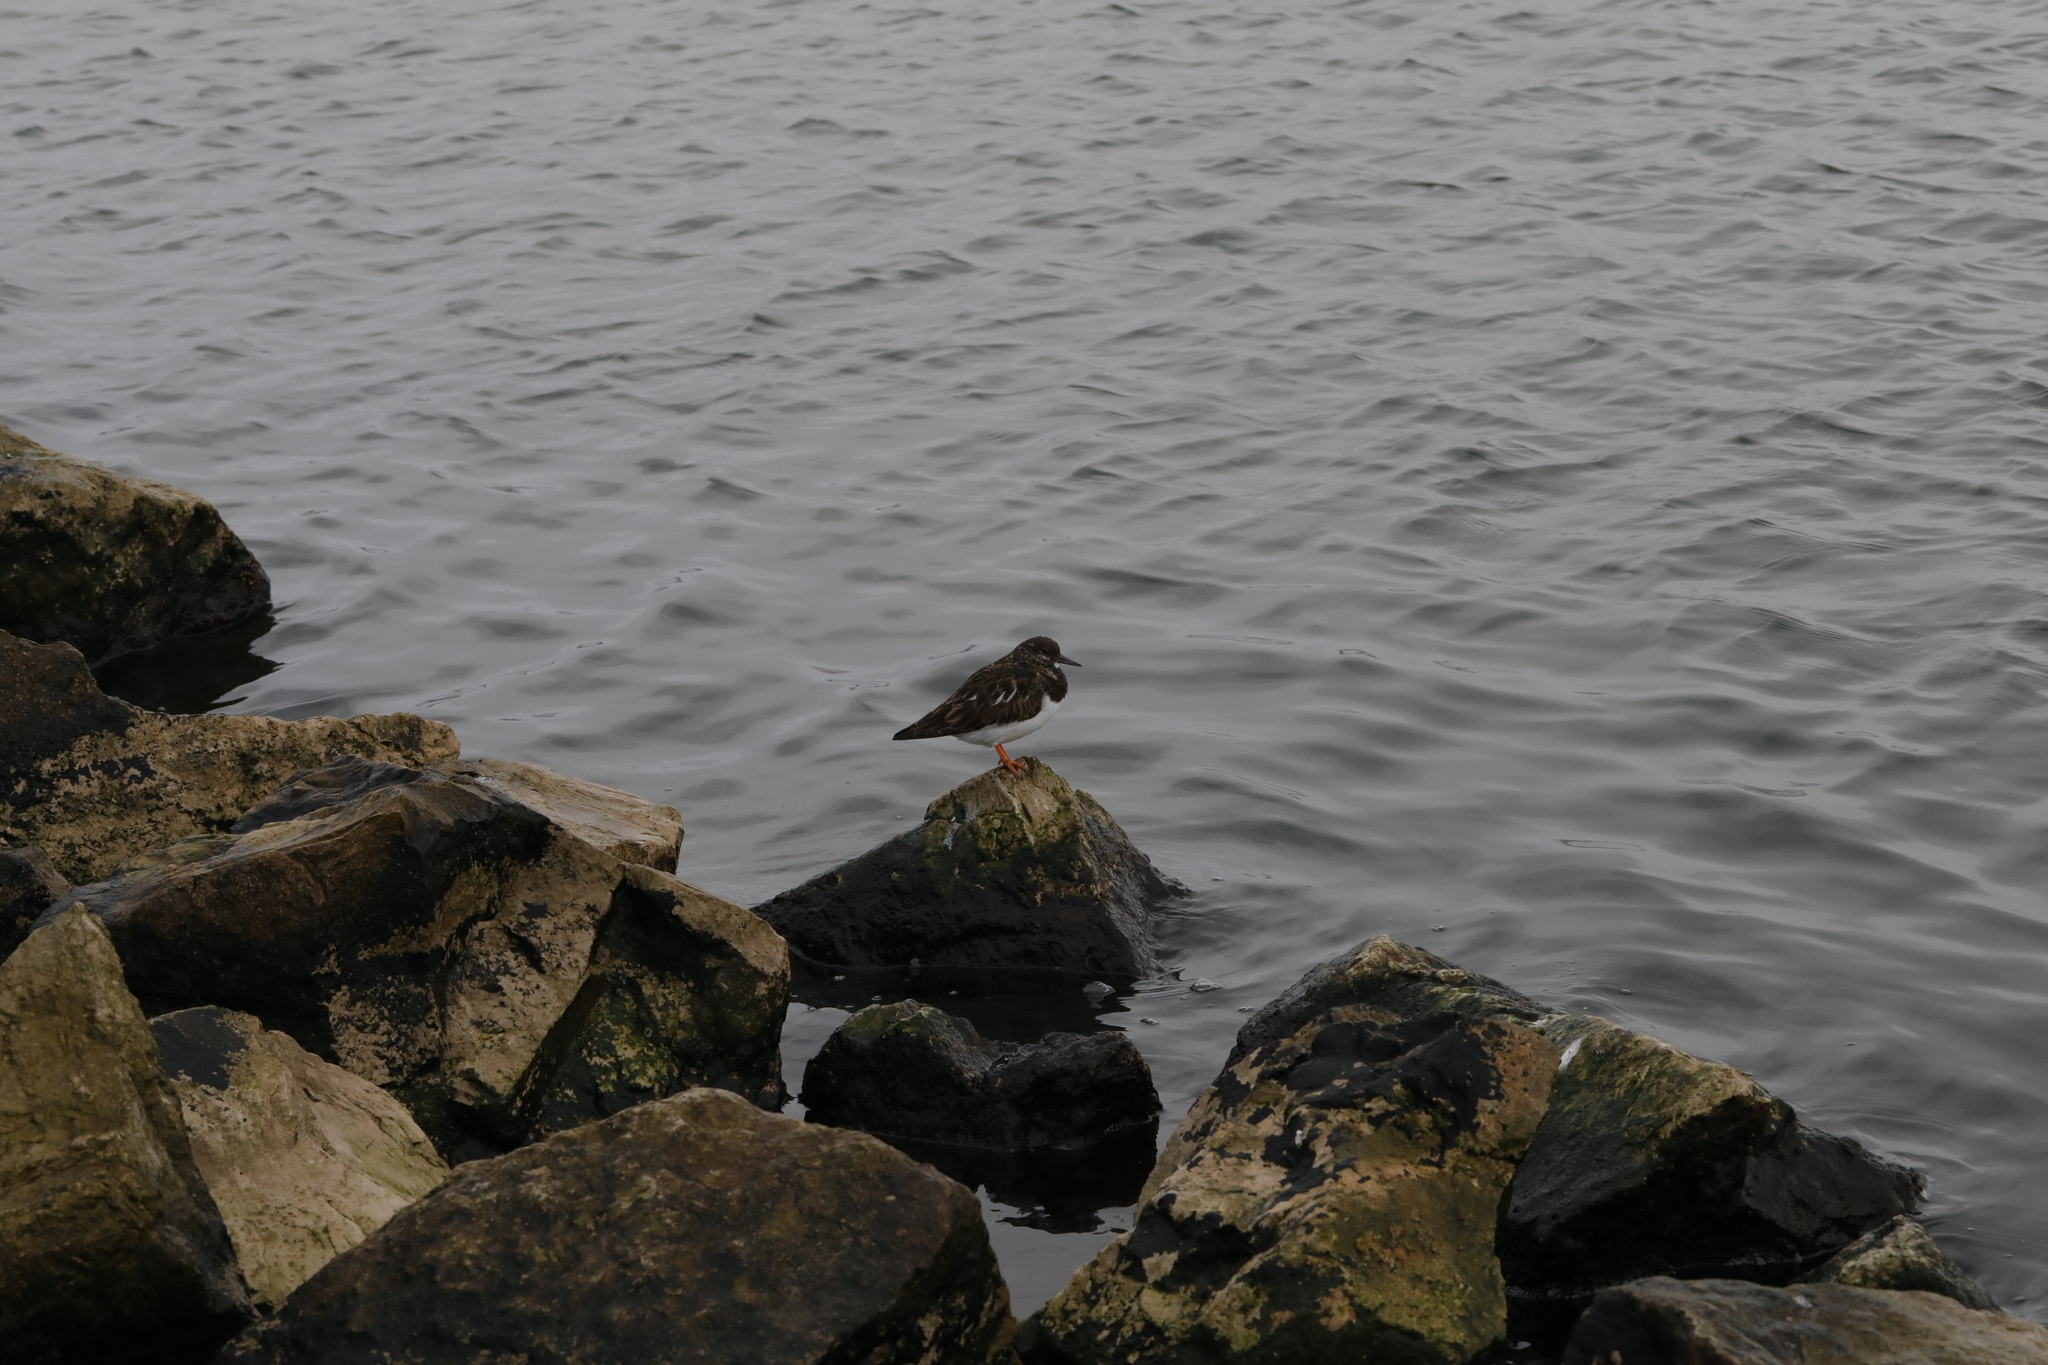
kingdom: Animalia
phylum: Chordata
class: Aves
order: Charadriiformes
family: Scolopacidae
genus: Arenaria
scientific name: Arenaria interpres
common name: Ruddy turnstone
